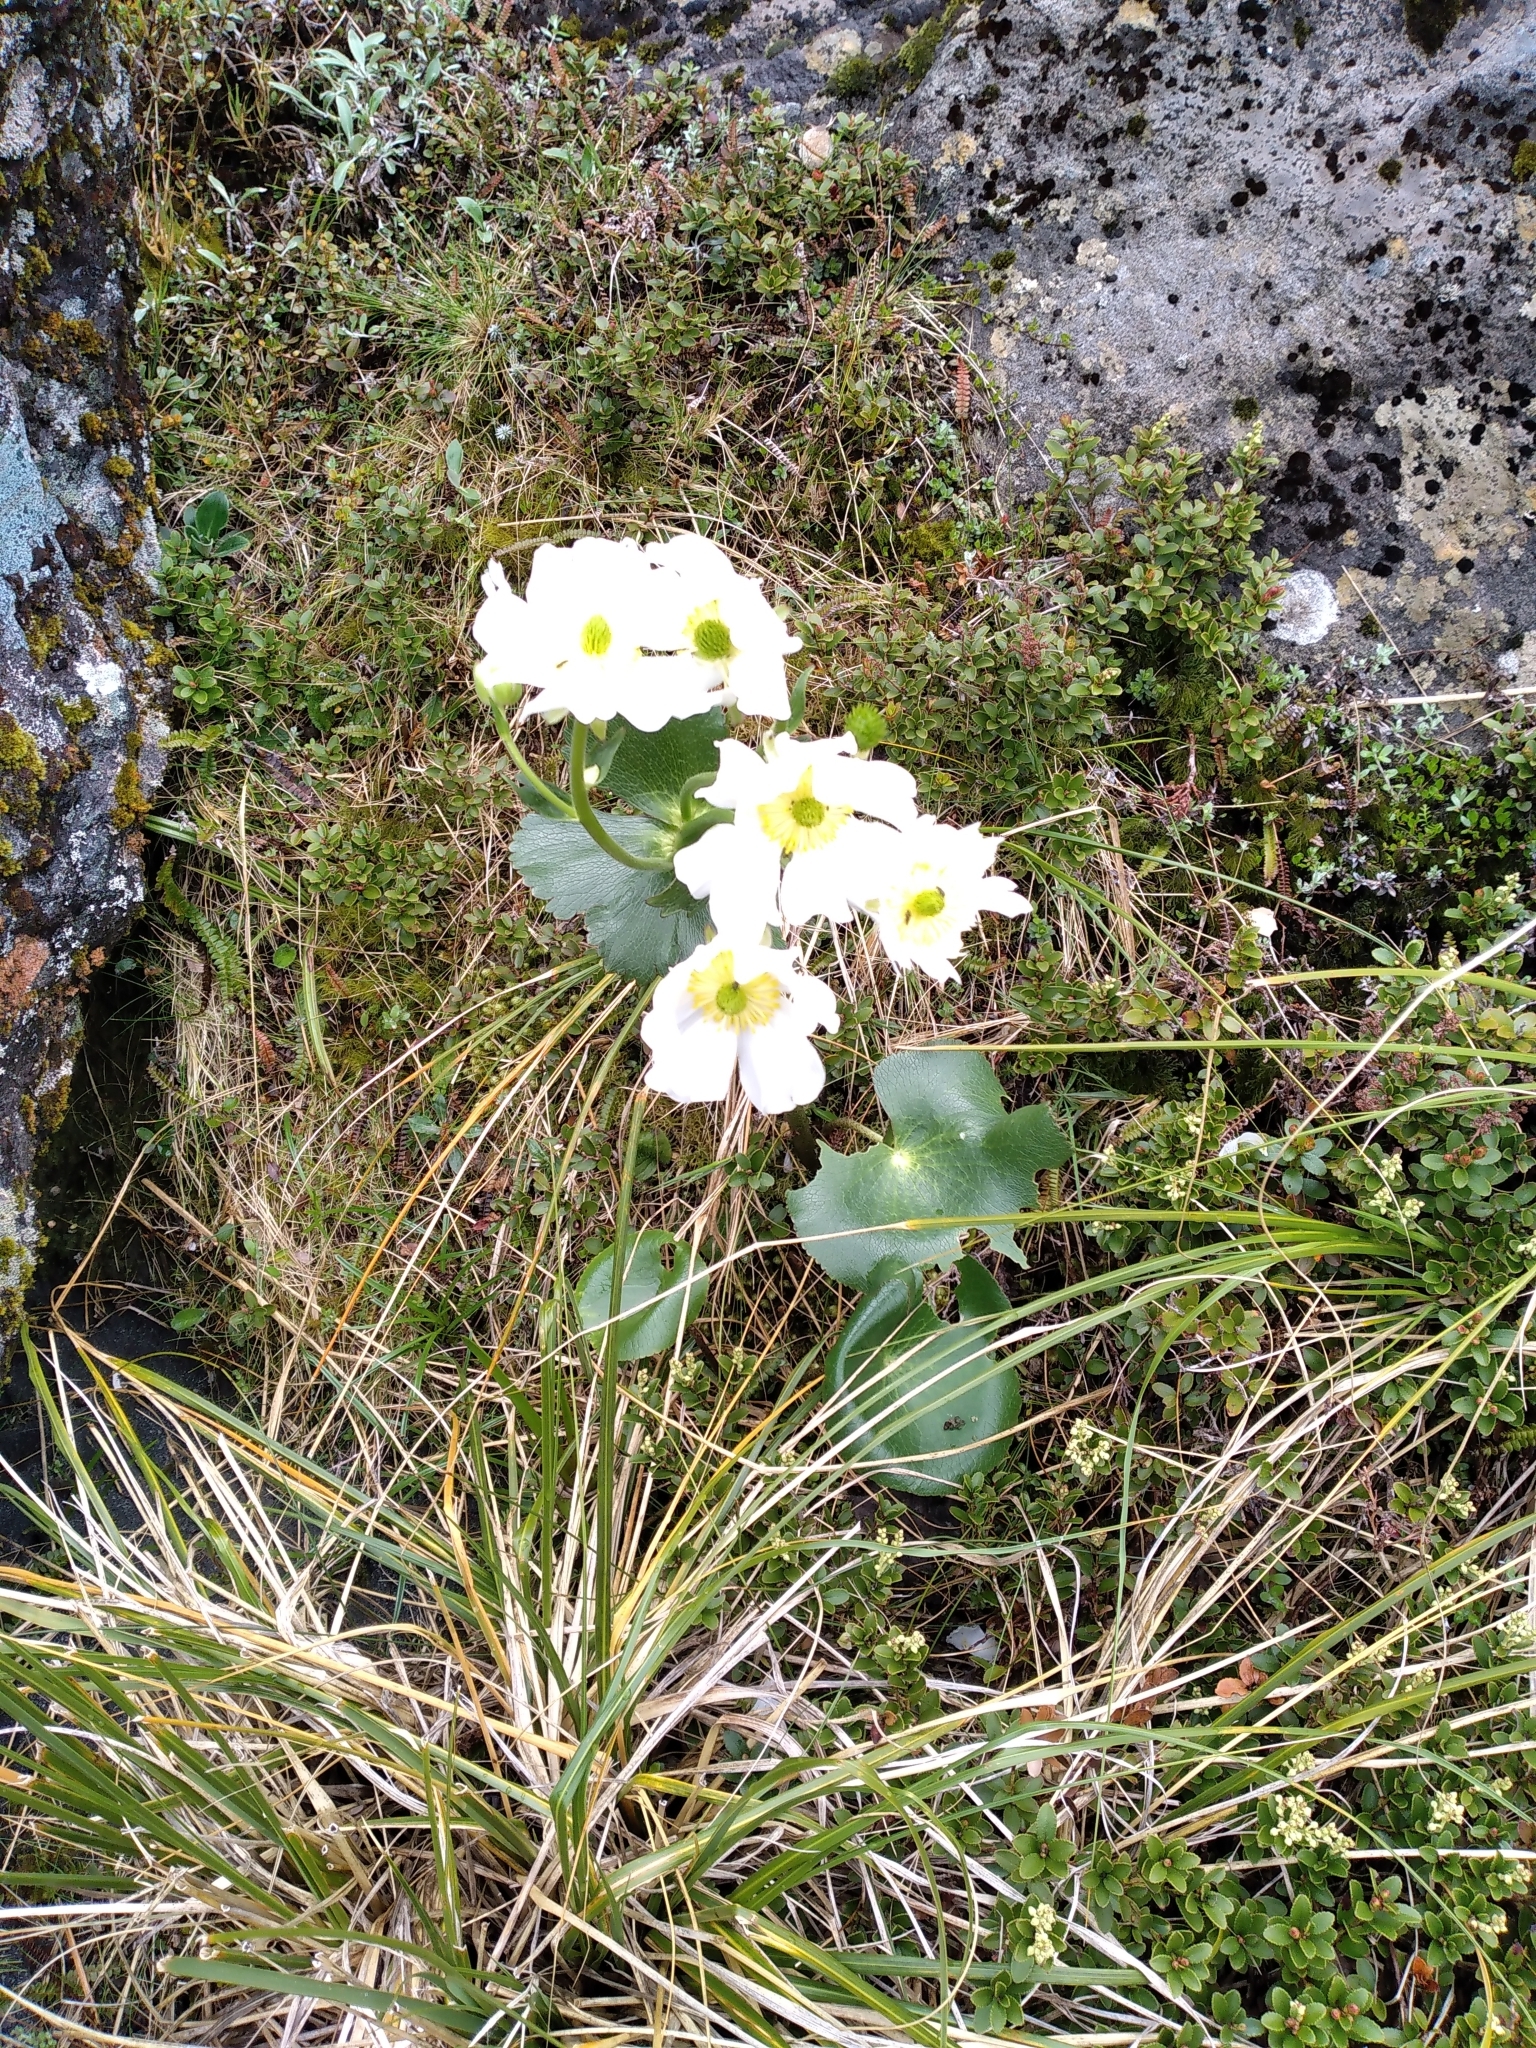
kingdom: Plantae
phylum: Tracheophyta
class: Magnoliopsida
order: Ranunculales
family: Ranunculaceae
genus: Ranunculus
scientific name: Ranunculus lyallii
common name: Mountain-lily
